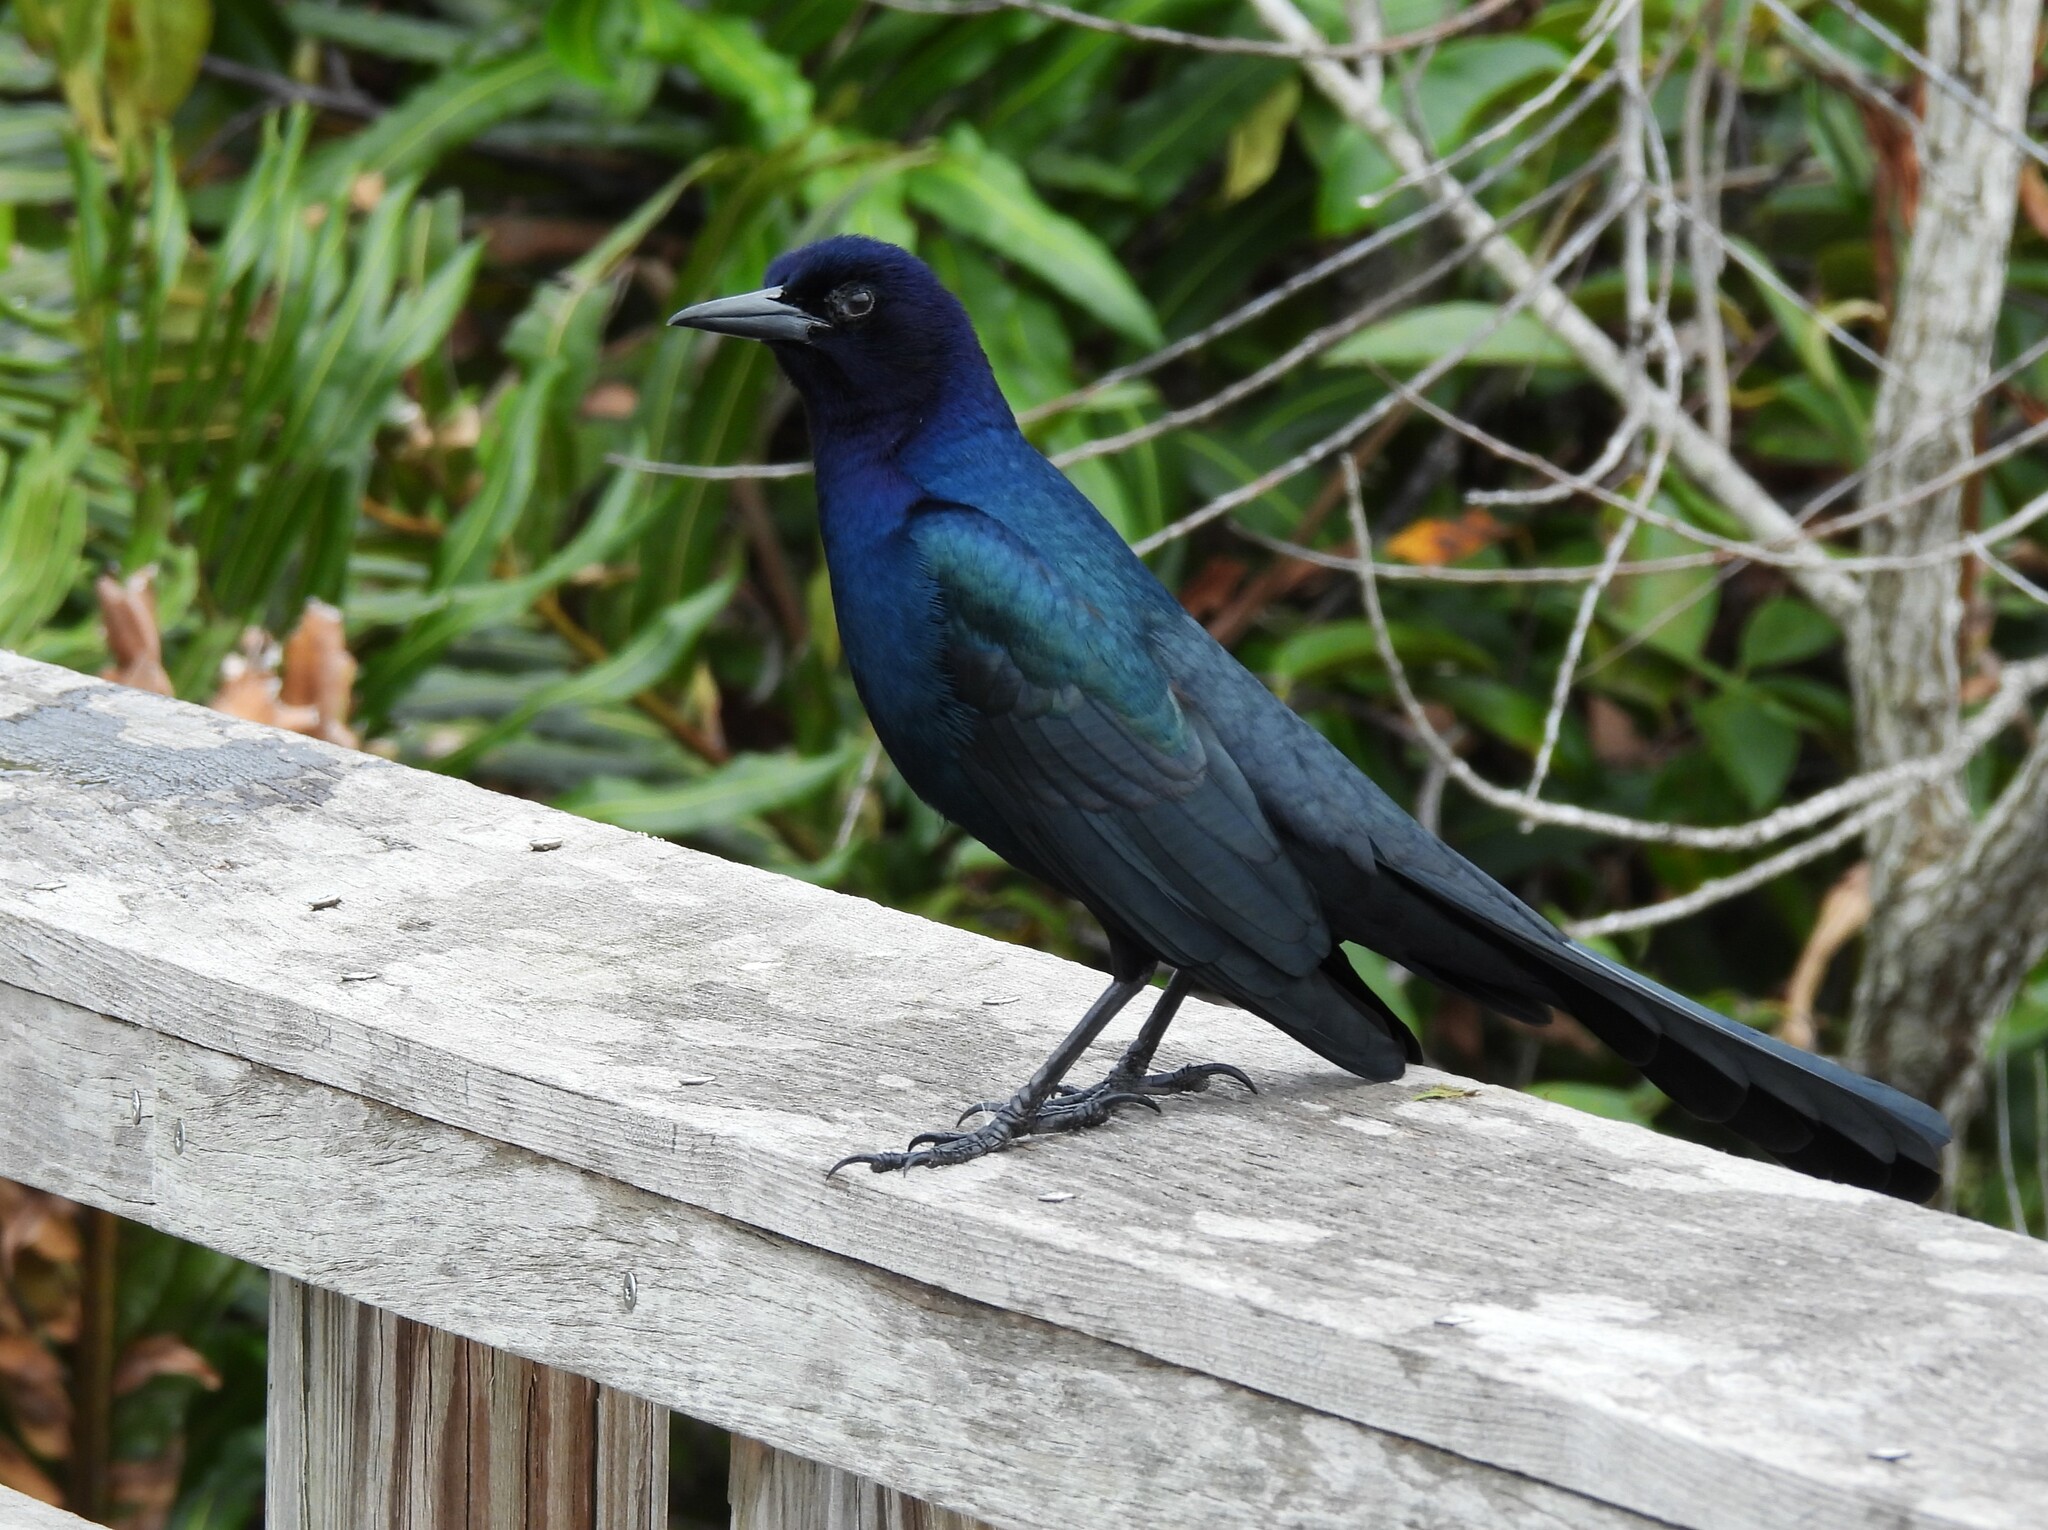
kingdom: Animalia
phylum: Chordata
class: Aves
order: Passeriformes
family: Icteridae
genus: Quiscalus
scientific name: Quiscalus major
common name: Boat-tailed grackle
